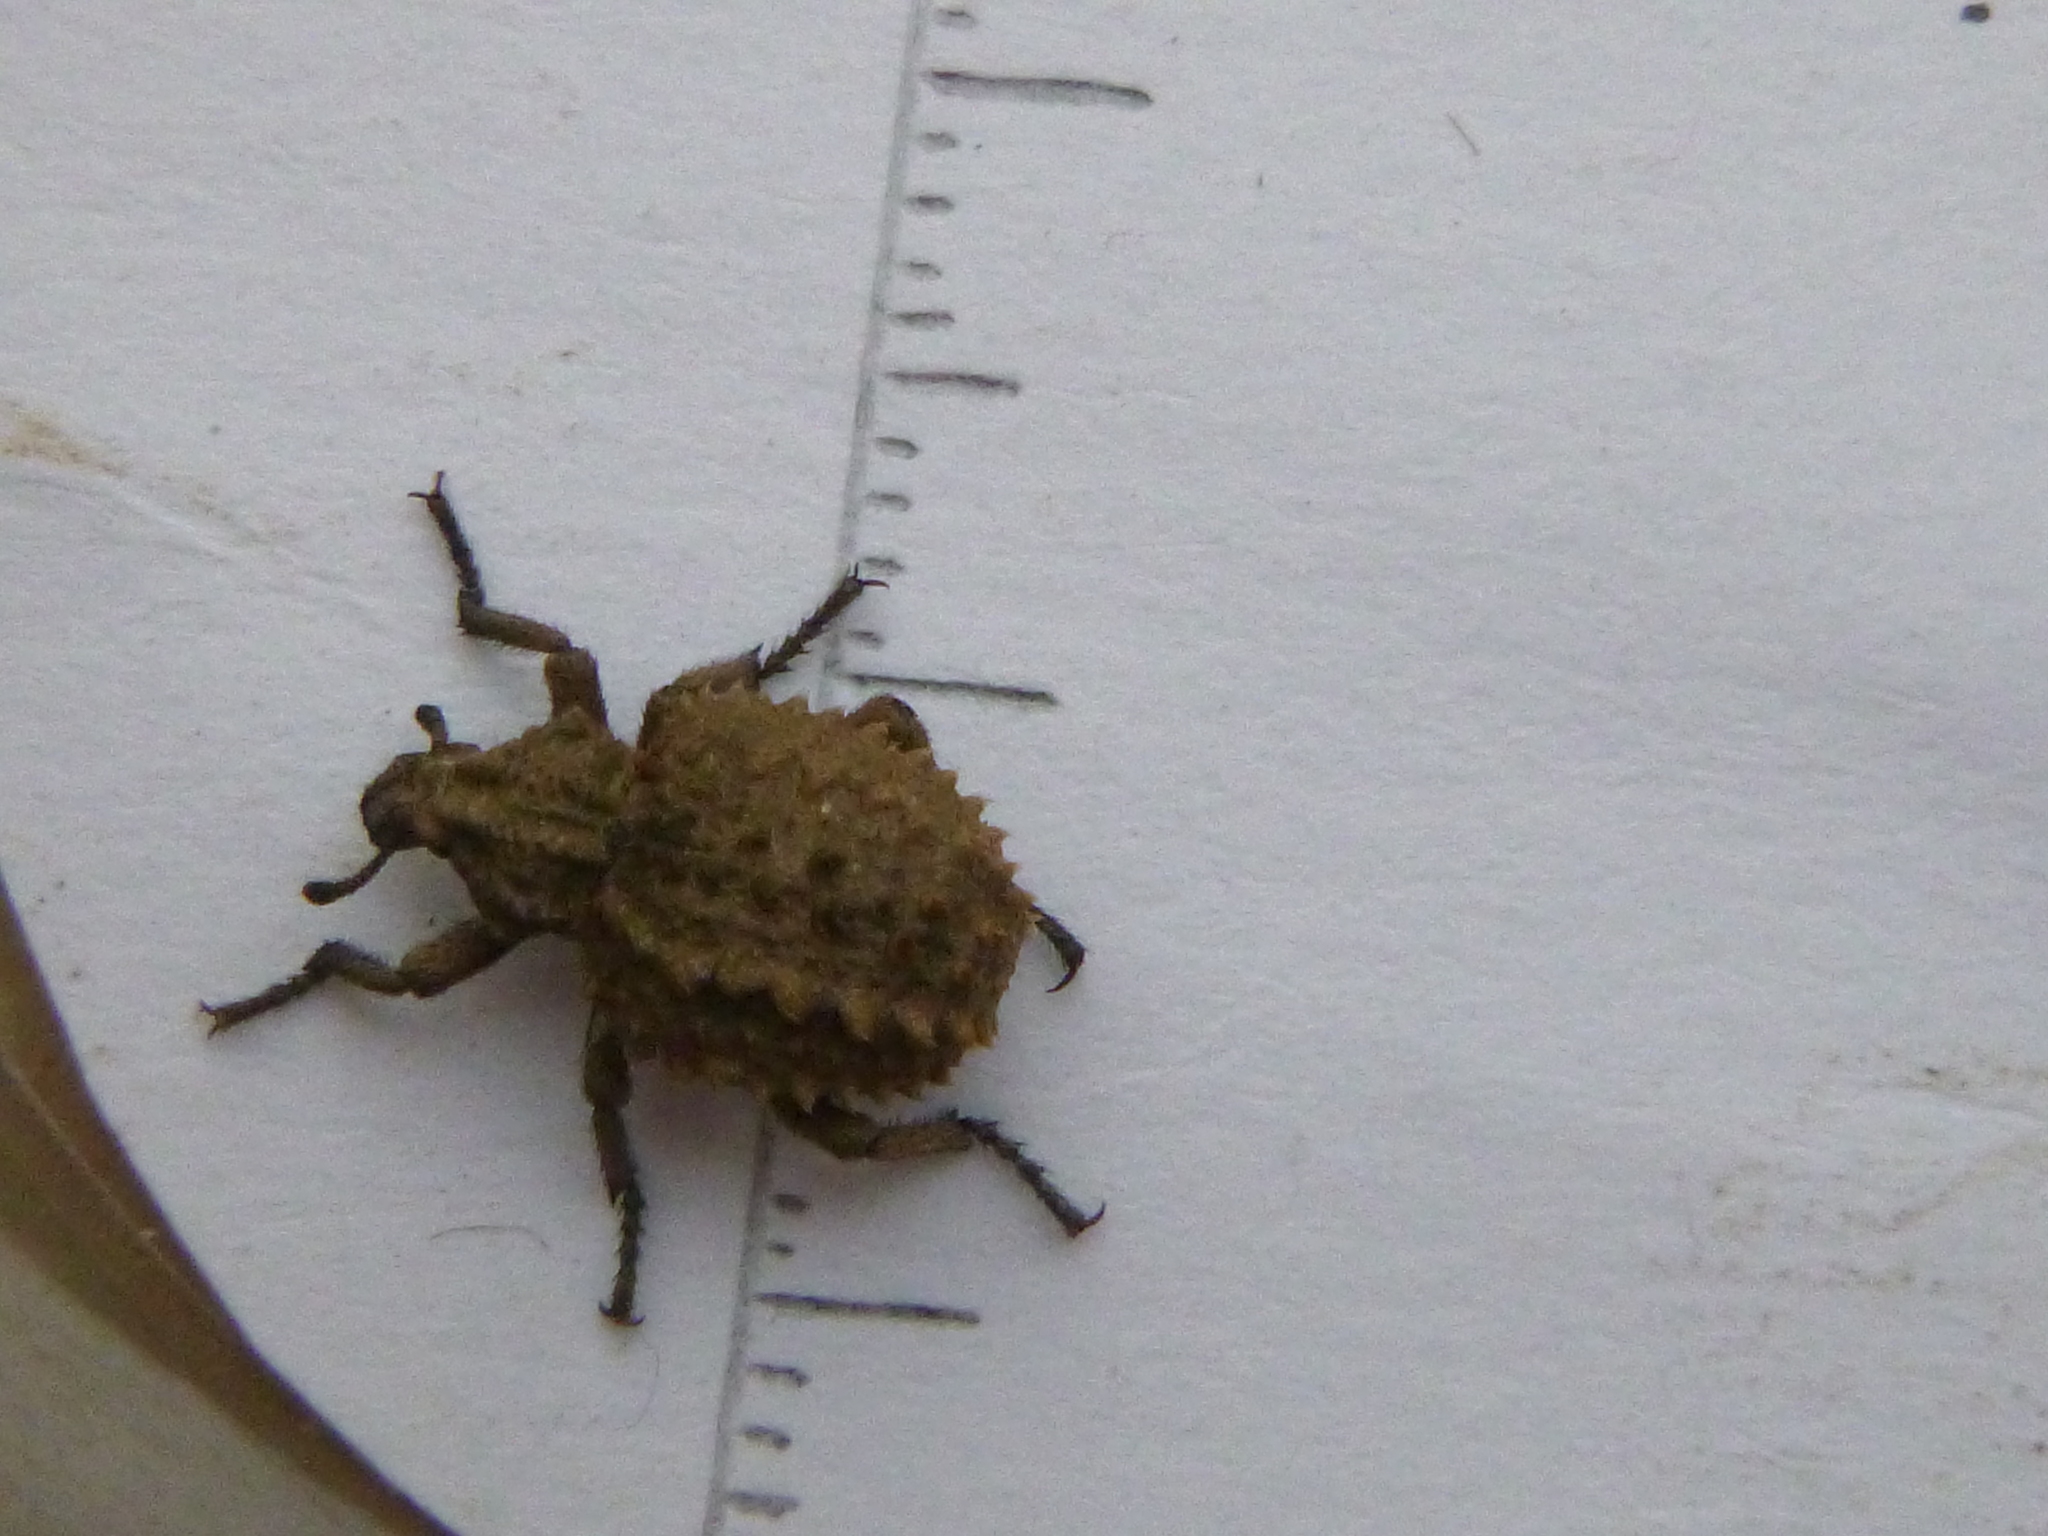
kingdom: Animalia
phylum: Arthropoda
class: Insecta
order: Coleoptera
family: Brachyceridae
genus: Brachycerus
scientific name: Brachycerus muricatus
